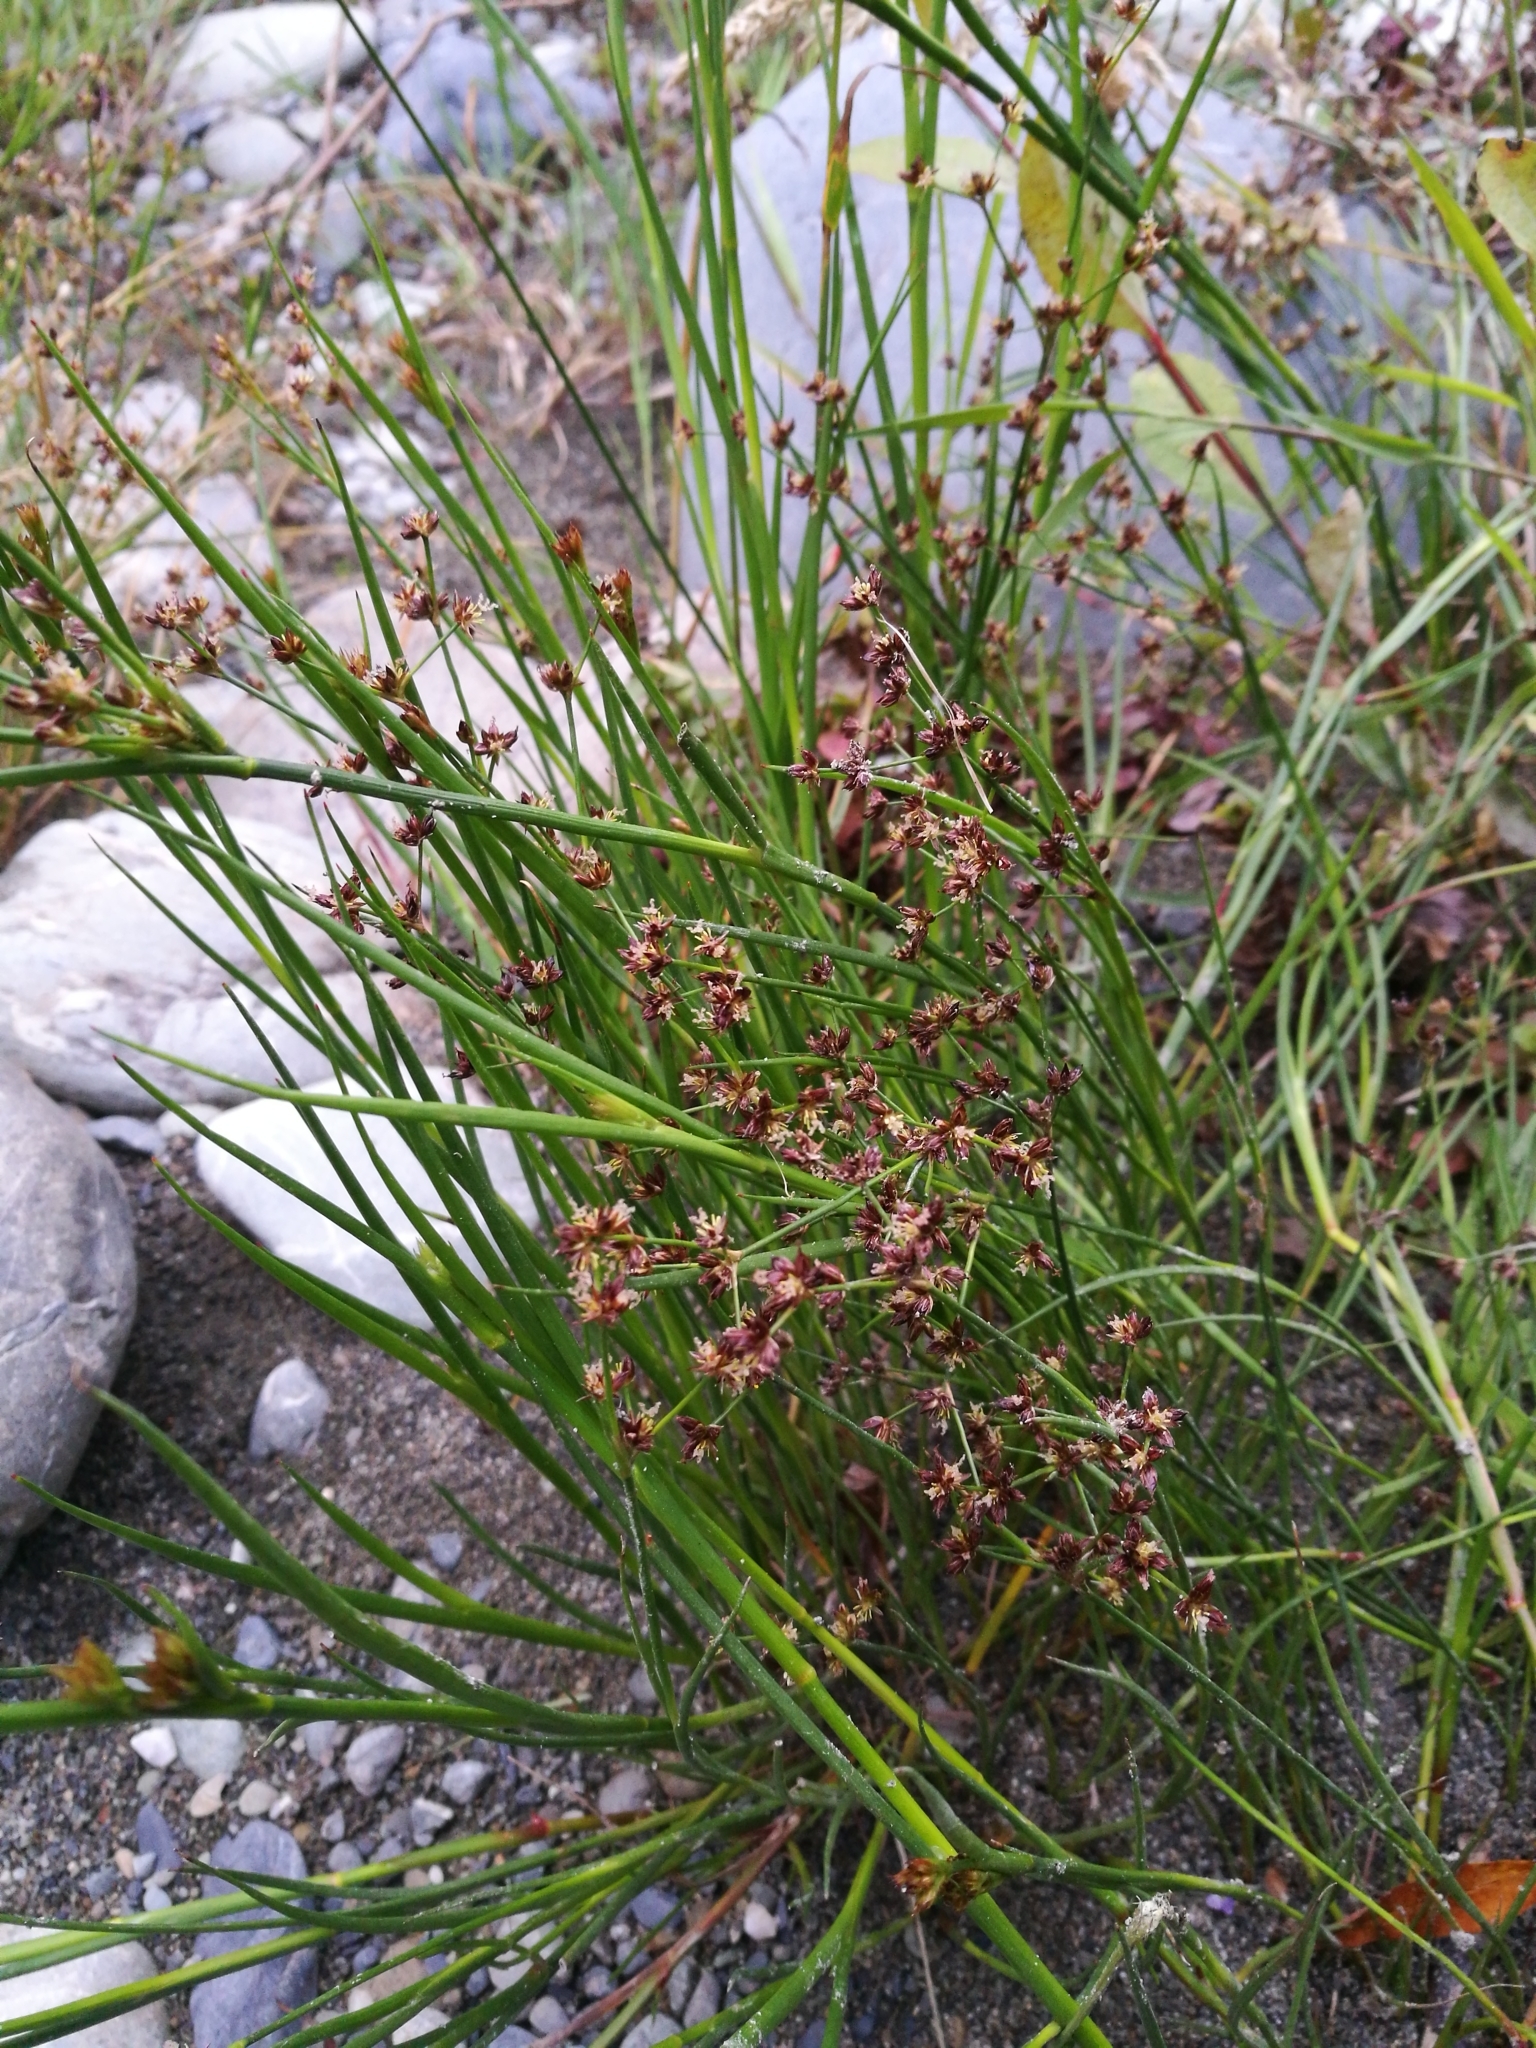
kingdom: Plantae
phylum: Tracheophyta
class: Liliopsida
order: Poales
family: Juncaceae
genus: Juncus
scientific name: Juncus articulatus
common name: Jointed rush
